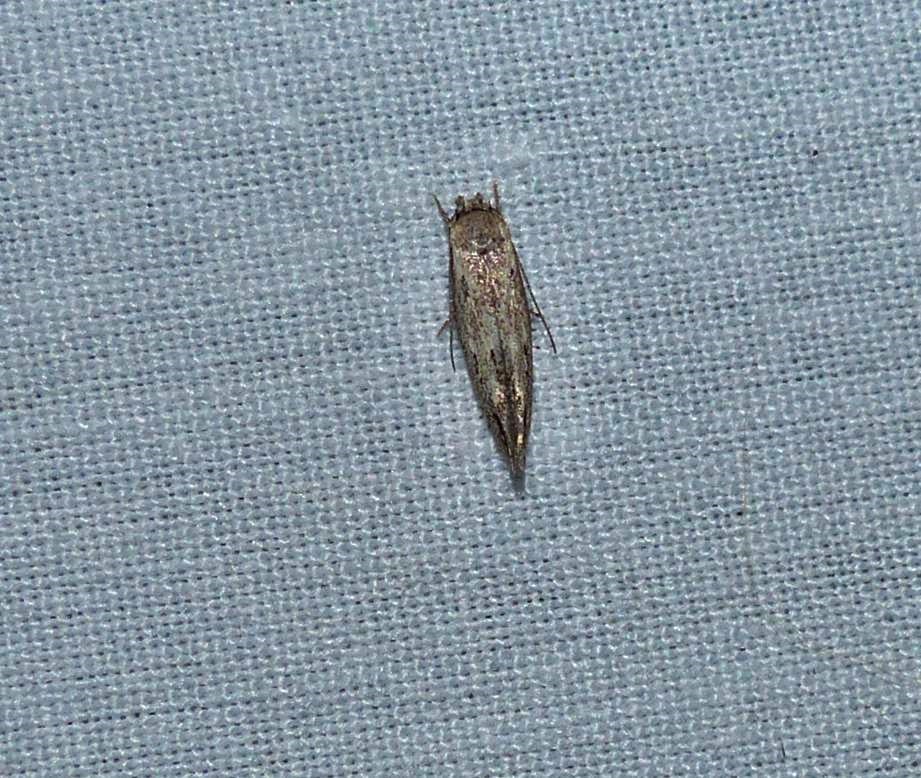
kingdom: Animalia
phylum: Arthropoda
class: Insecta
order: Lepidoptera
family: Momphidae
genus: Mompha
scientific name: Mompha brevivittella
